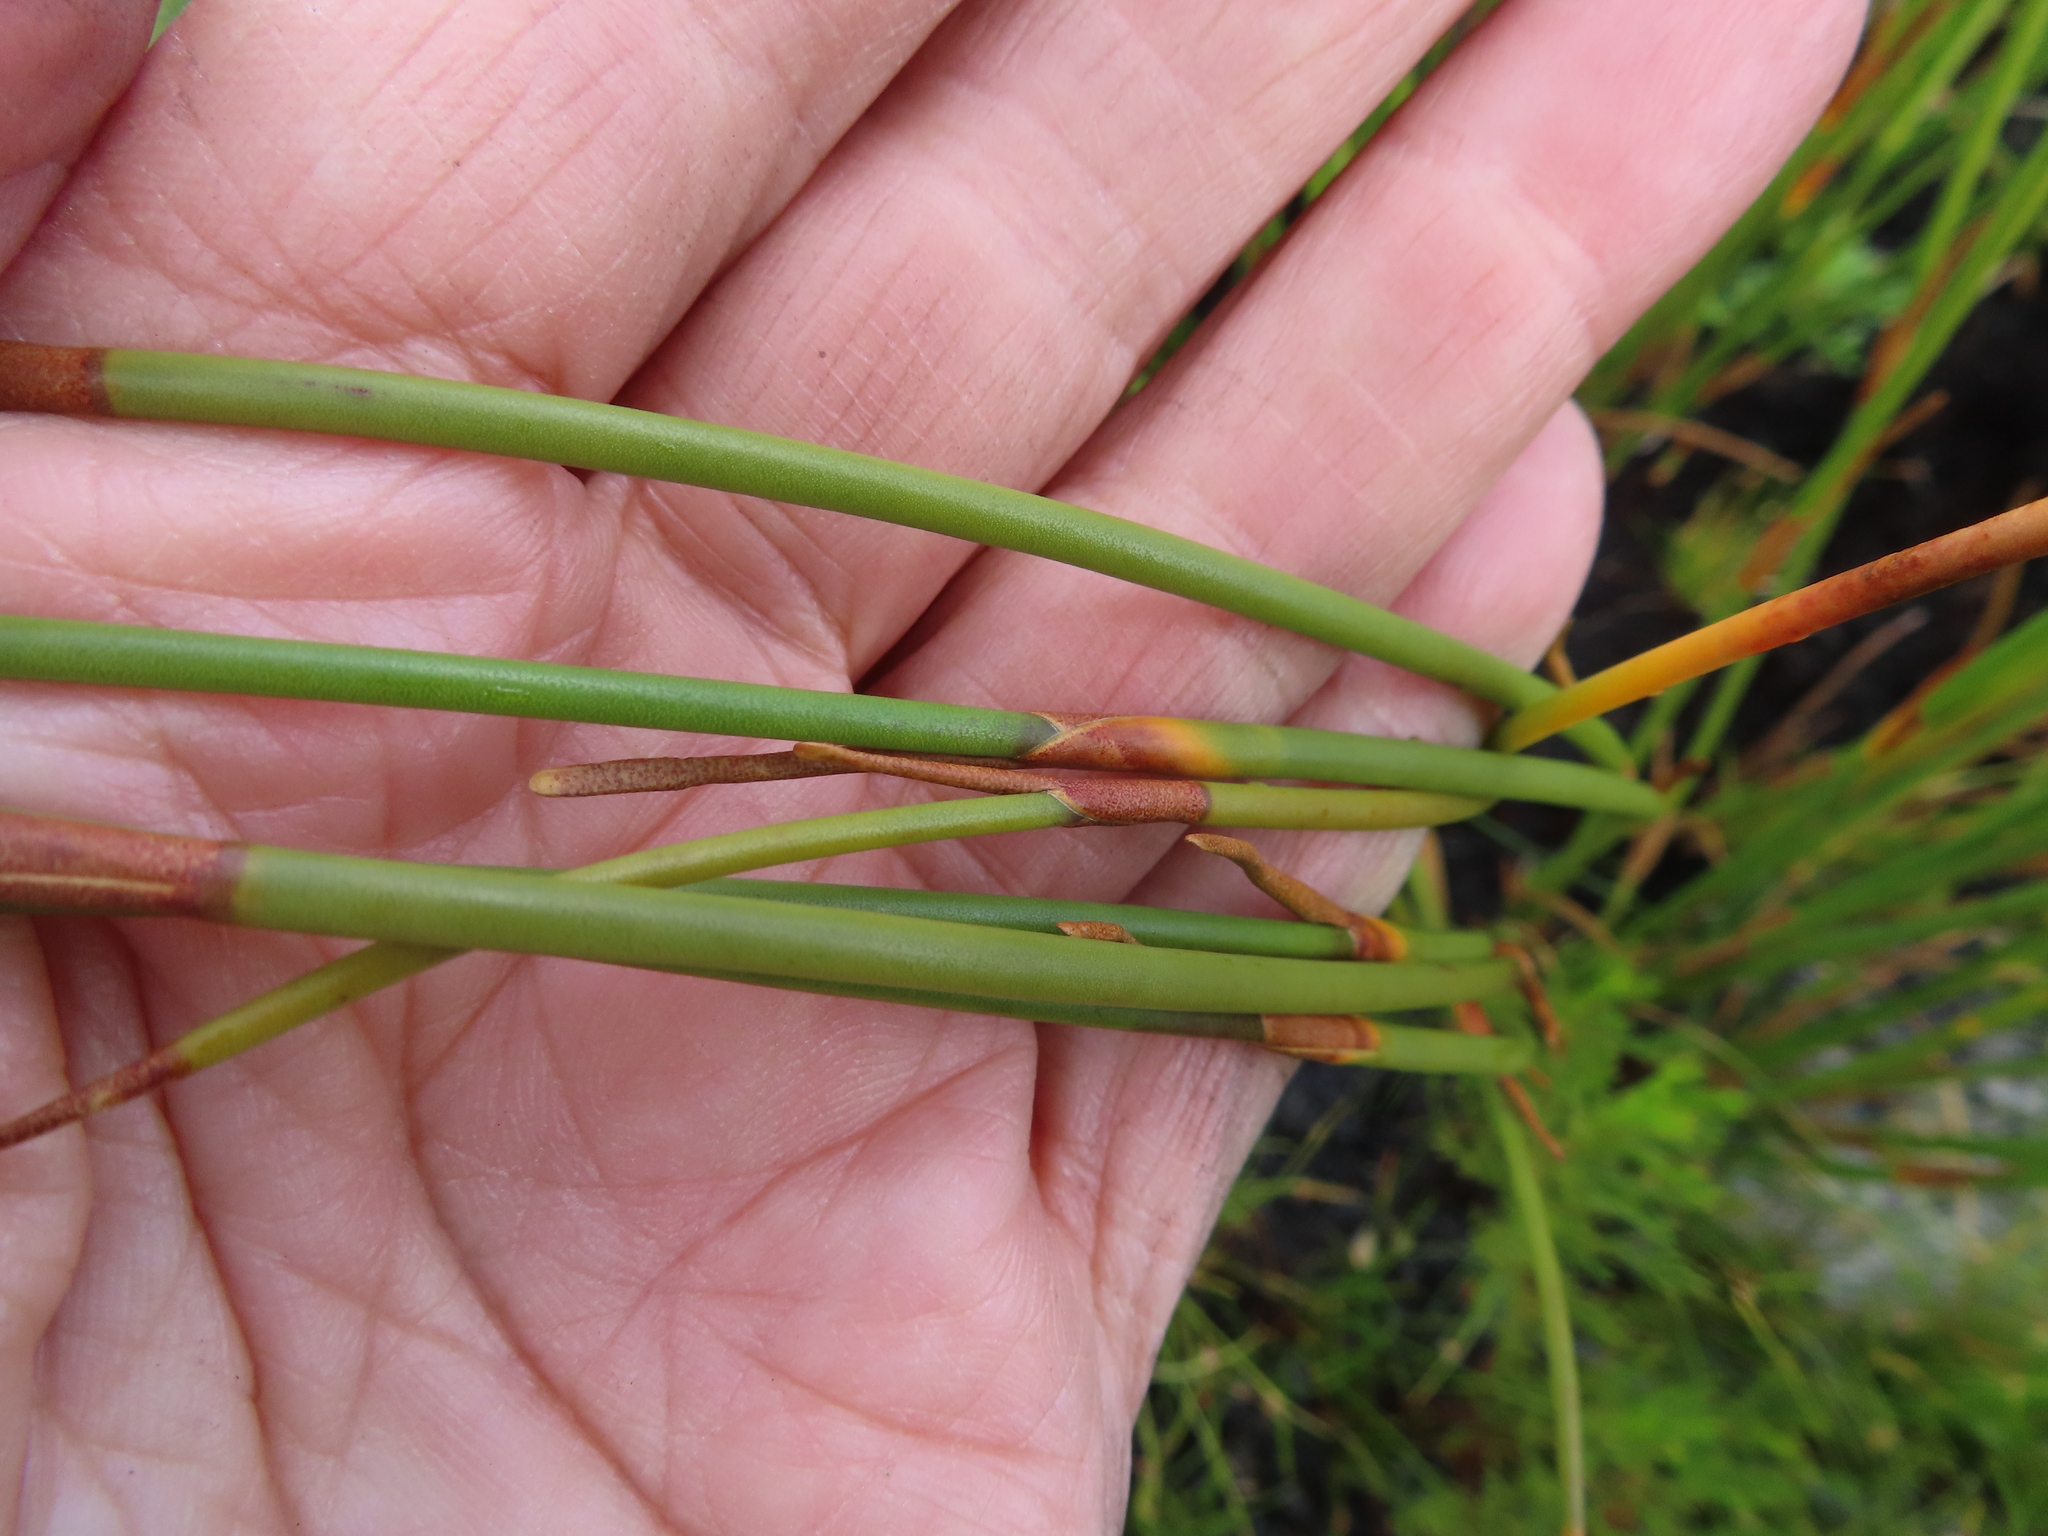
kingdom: Plantae
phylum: Tracheophyta
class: Liliopsida
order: Poales
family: Restionaceae
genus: Nevillea
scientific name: Nevillea obtusissimus
